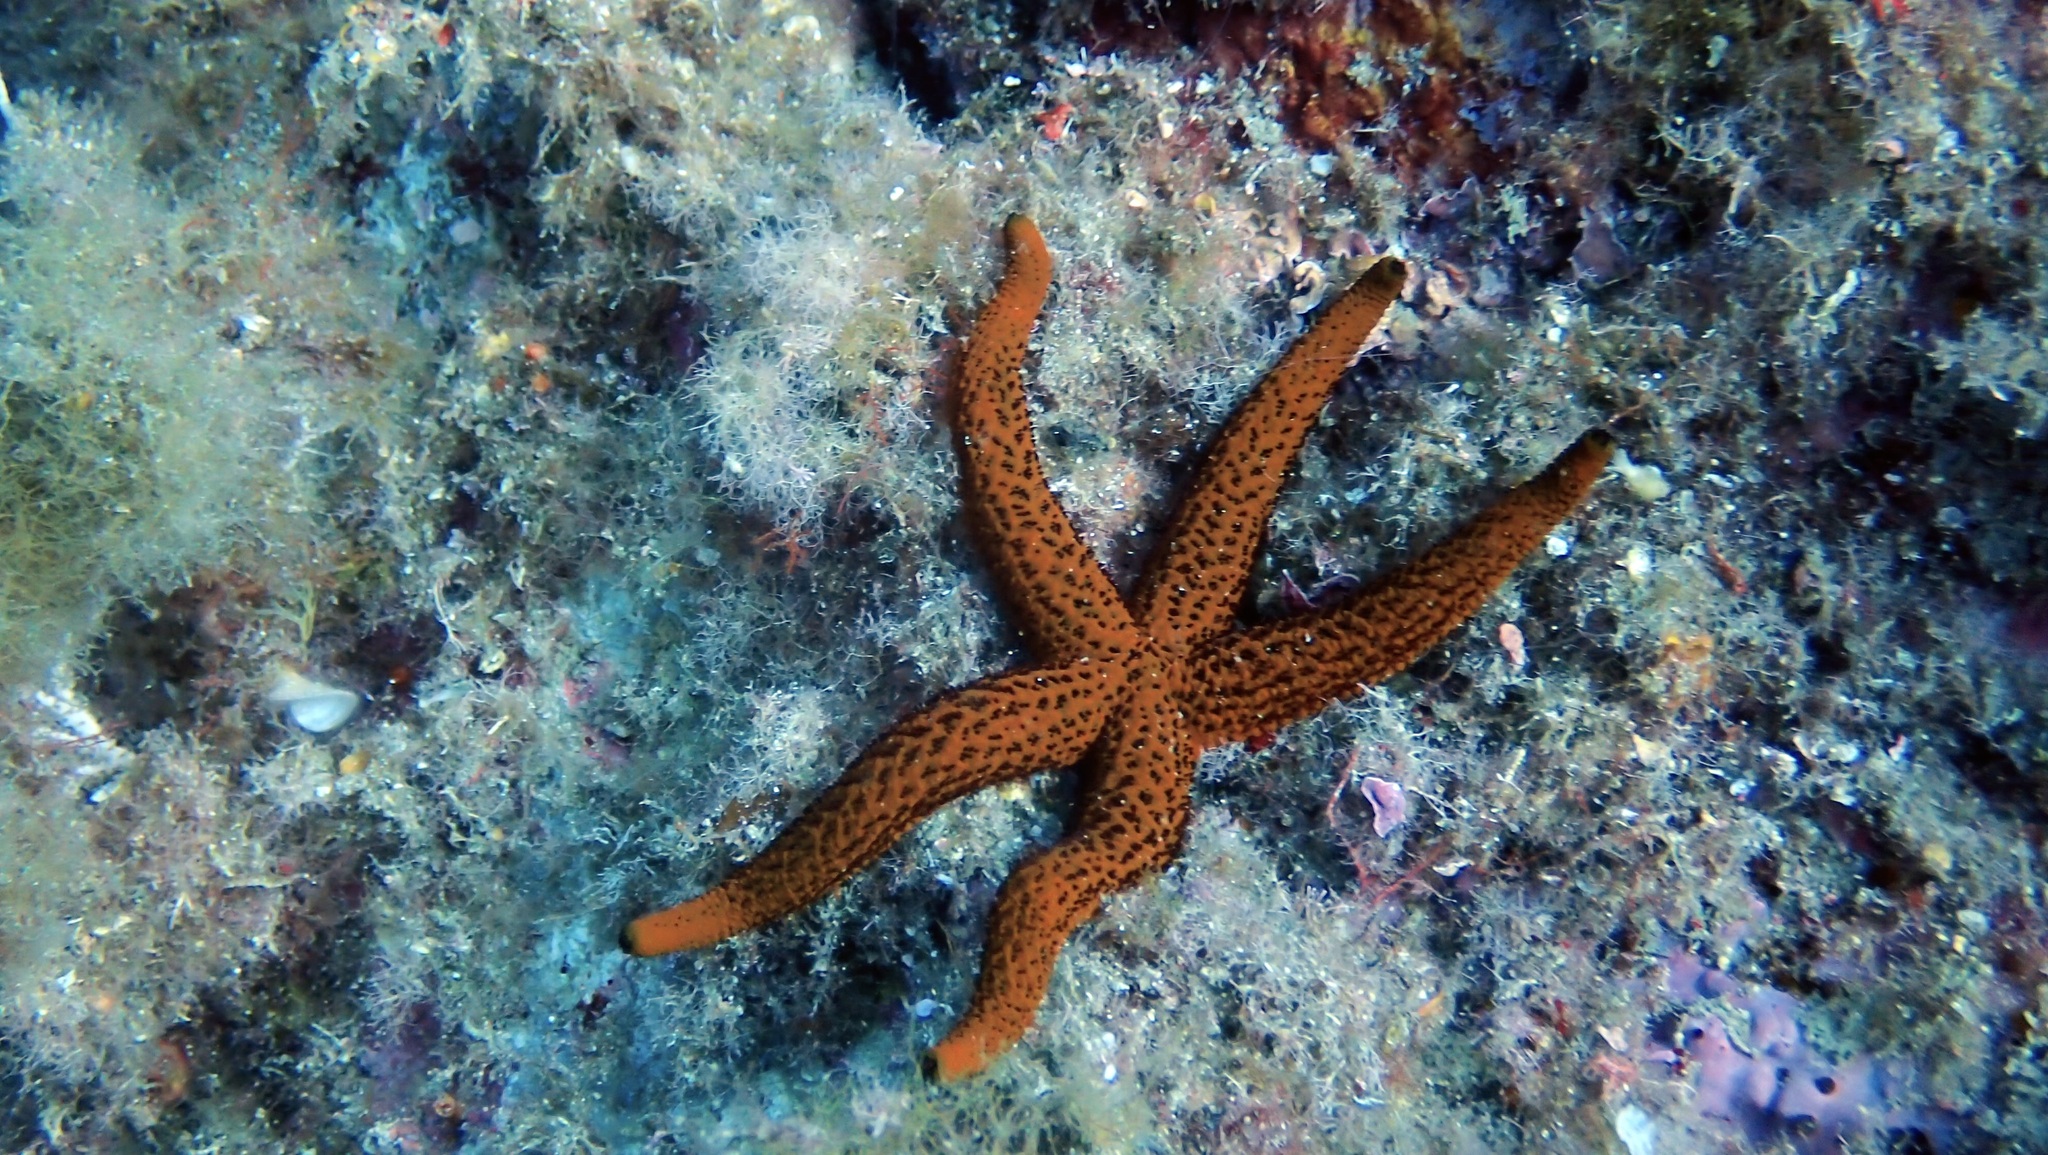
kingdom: Animalia
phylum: Echinodermata
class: Asteroidea
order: Spinulosida
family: Echinasteridae
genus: Echinaster
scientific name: Echinaster sepositus
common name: Red starfish
